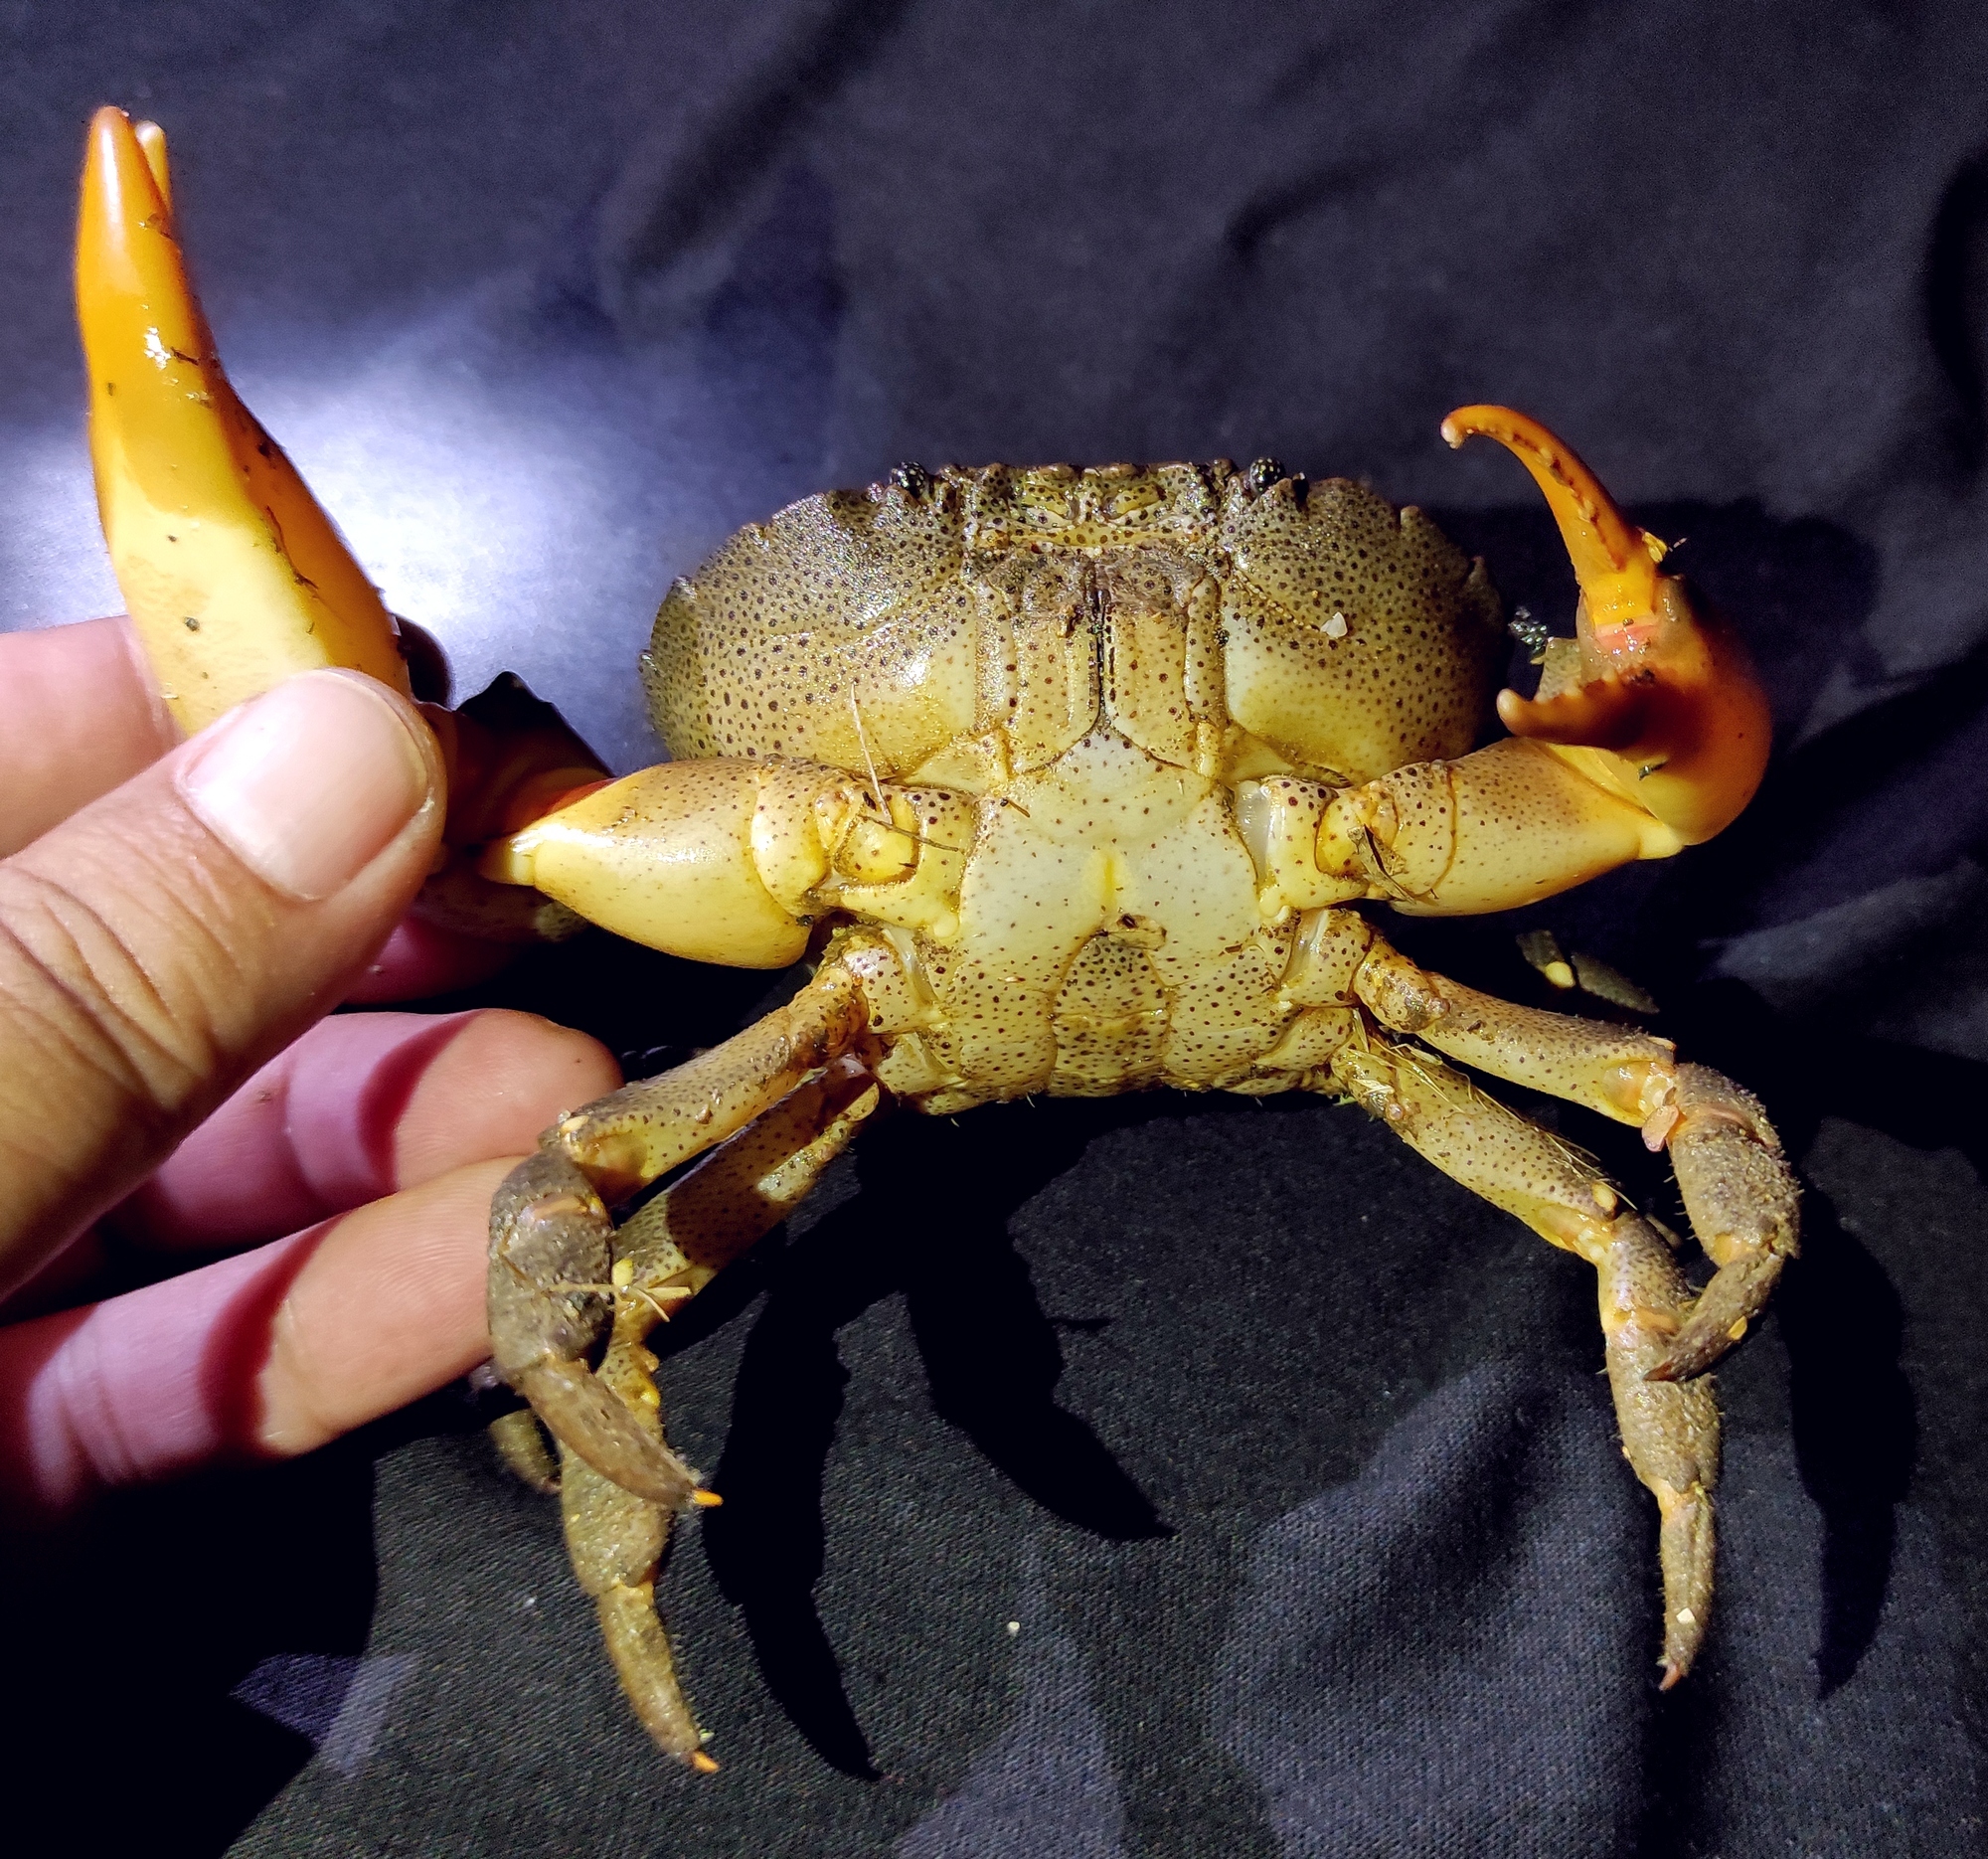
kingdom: Animalia
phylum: Arthropoda
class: Malacostraca
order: Decapoda
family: Oziidae
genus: Ozius
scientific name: Ozius guttatus
